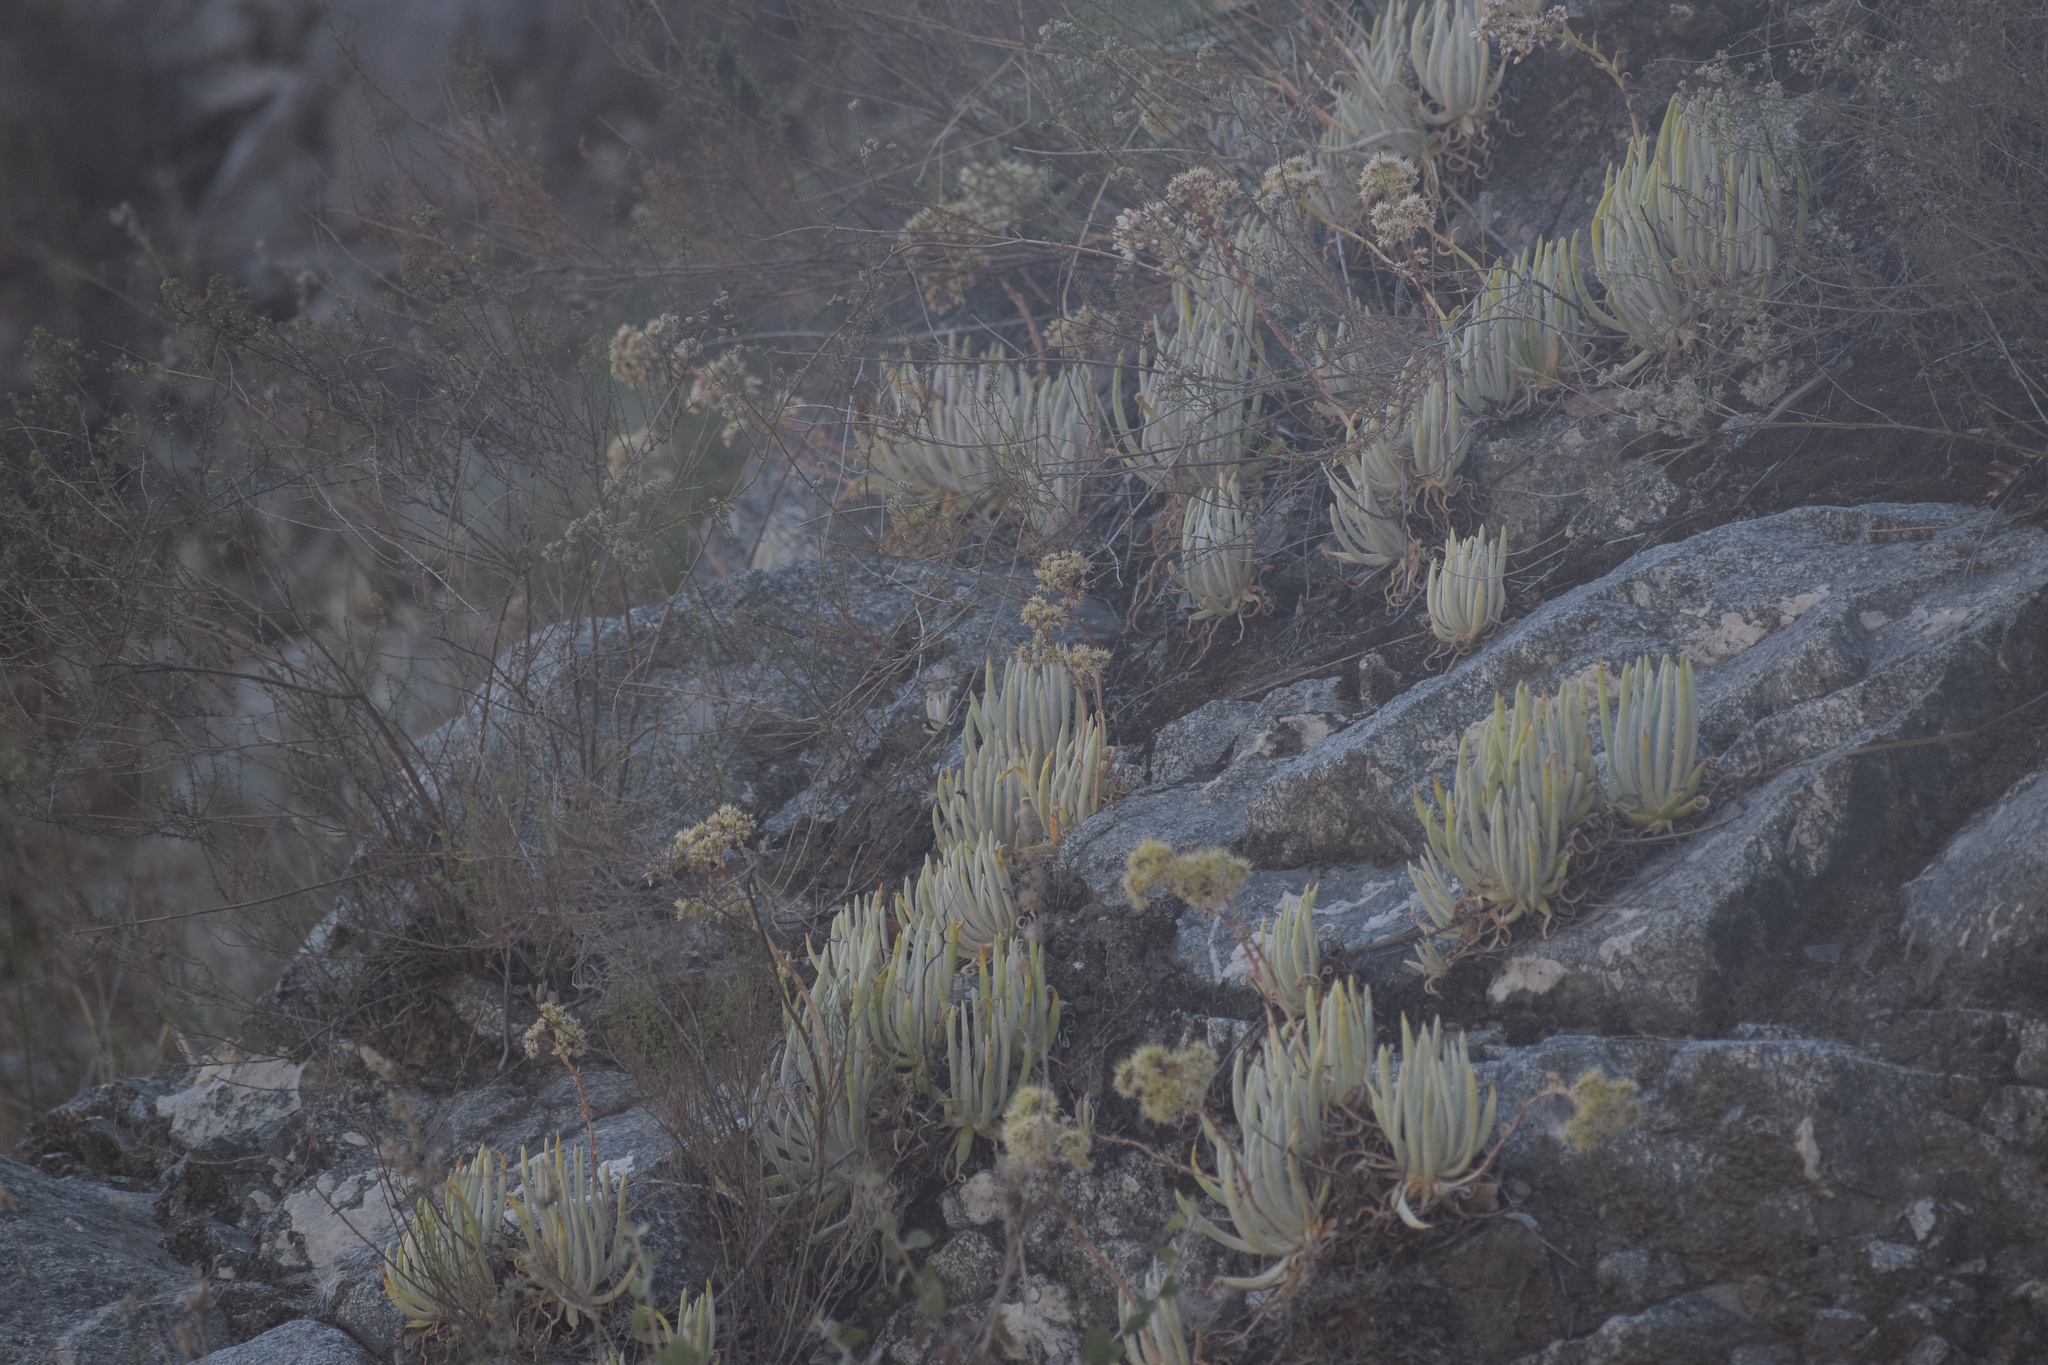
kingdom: Plantae
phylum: Tracheophyta
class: Magnoliopsida
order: Saxifragales
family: Crassulaceae
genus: Dudleya
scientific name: Dudleya densiflora
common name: San gabriel mountains dudleya
